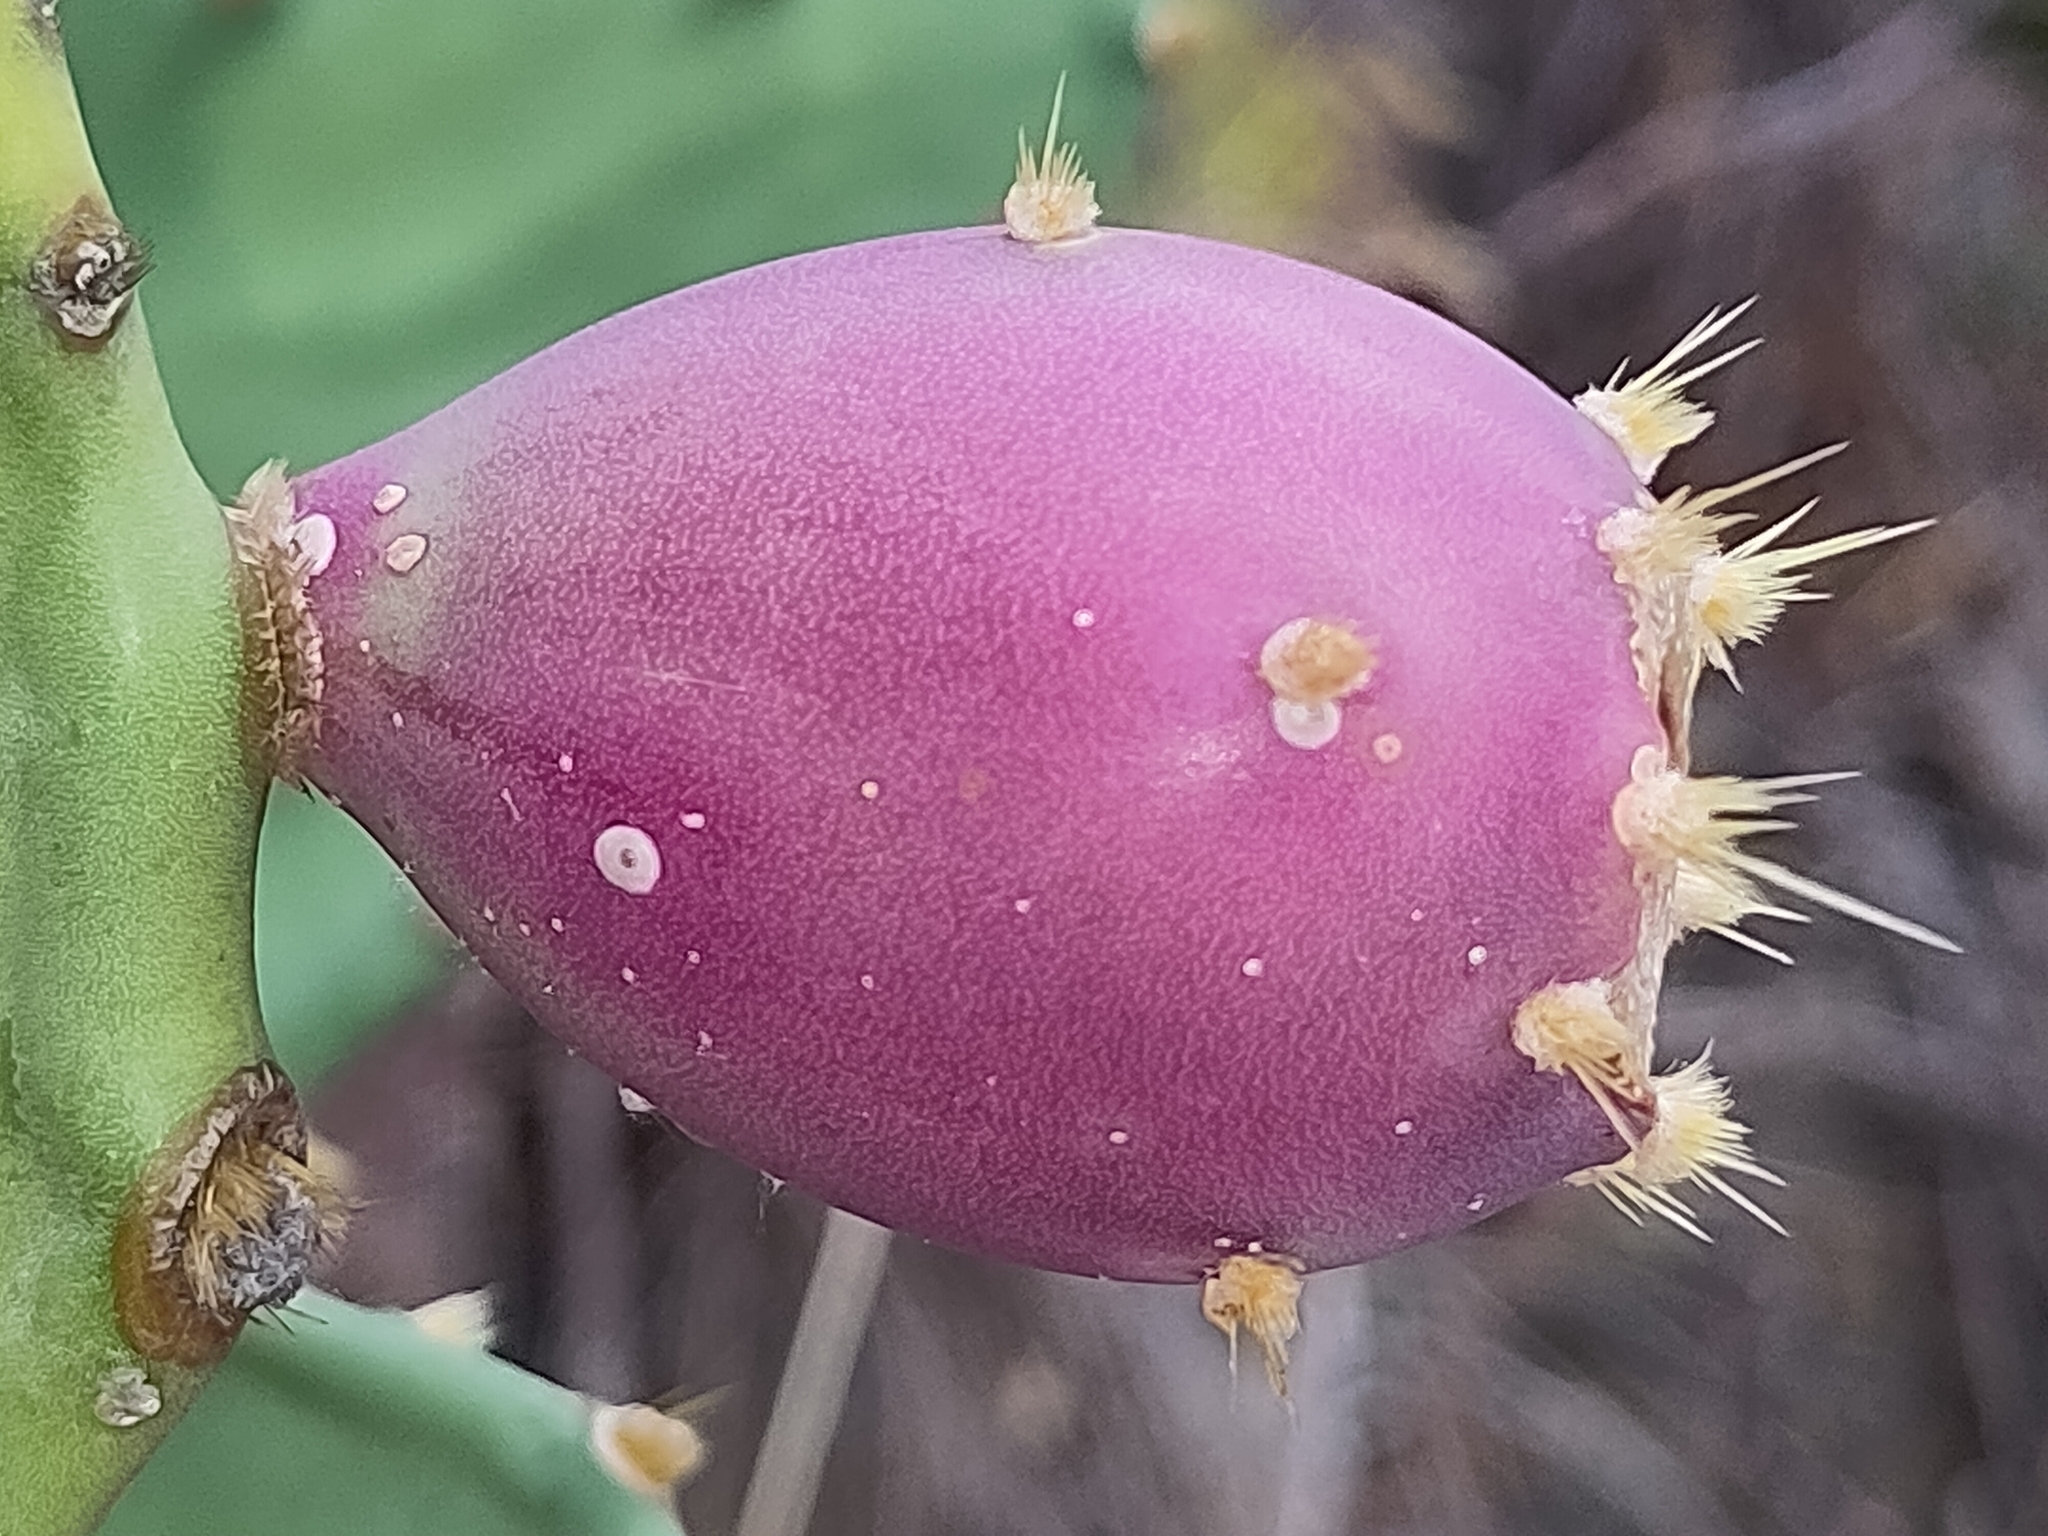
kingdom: Plantae
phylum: Tracheophyta
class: Magnoliopsida
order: Caryophyllales
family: Cactaceae
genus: Opuntia
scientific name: Opuntia anahuacensis
